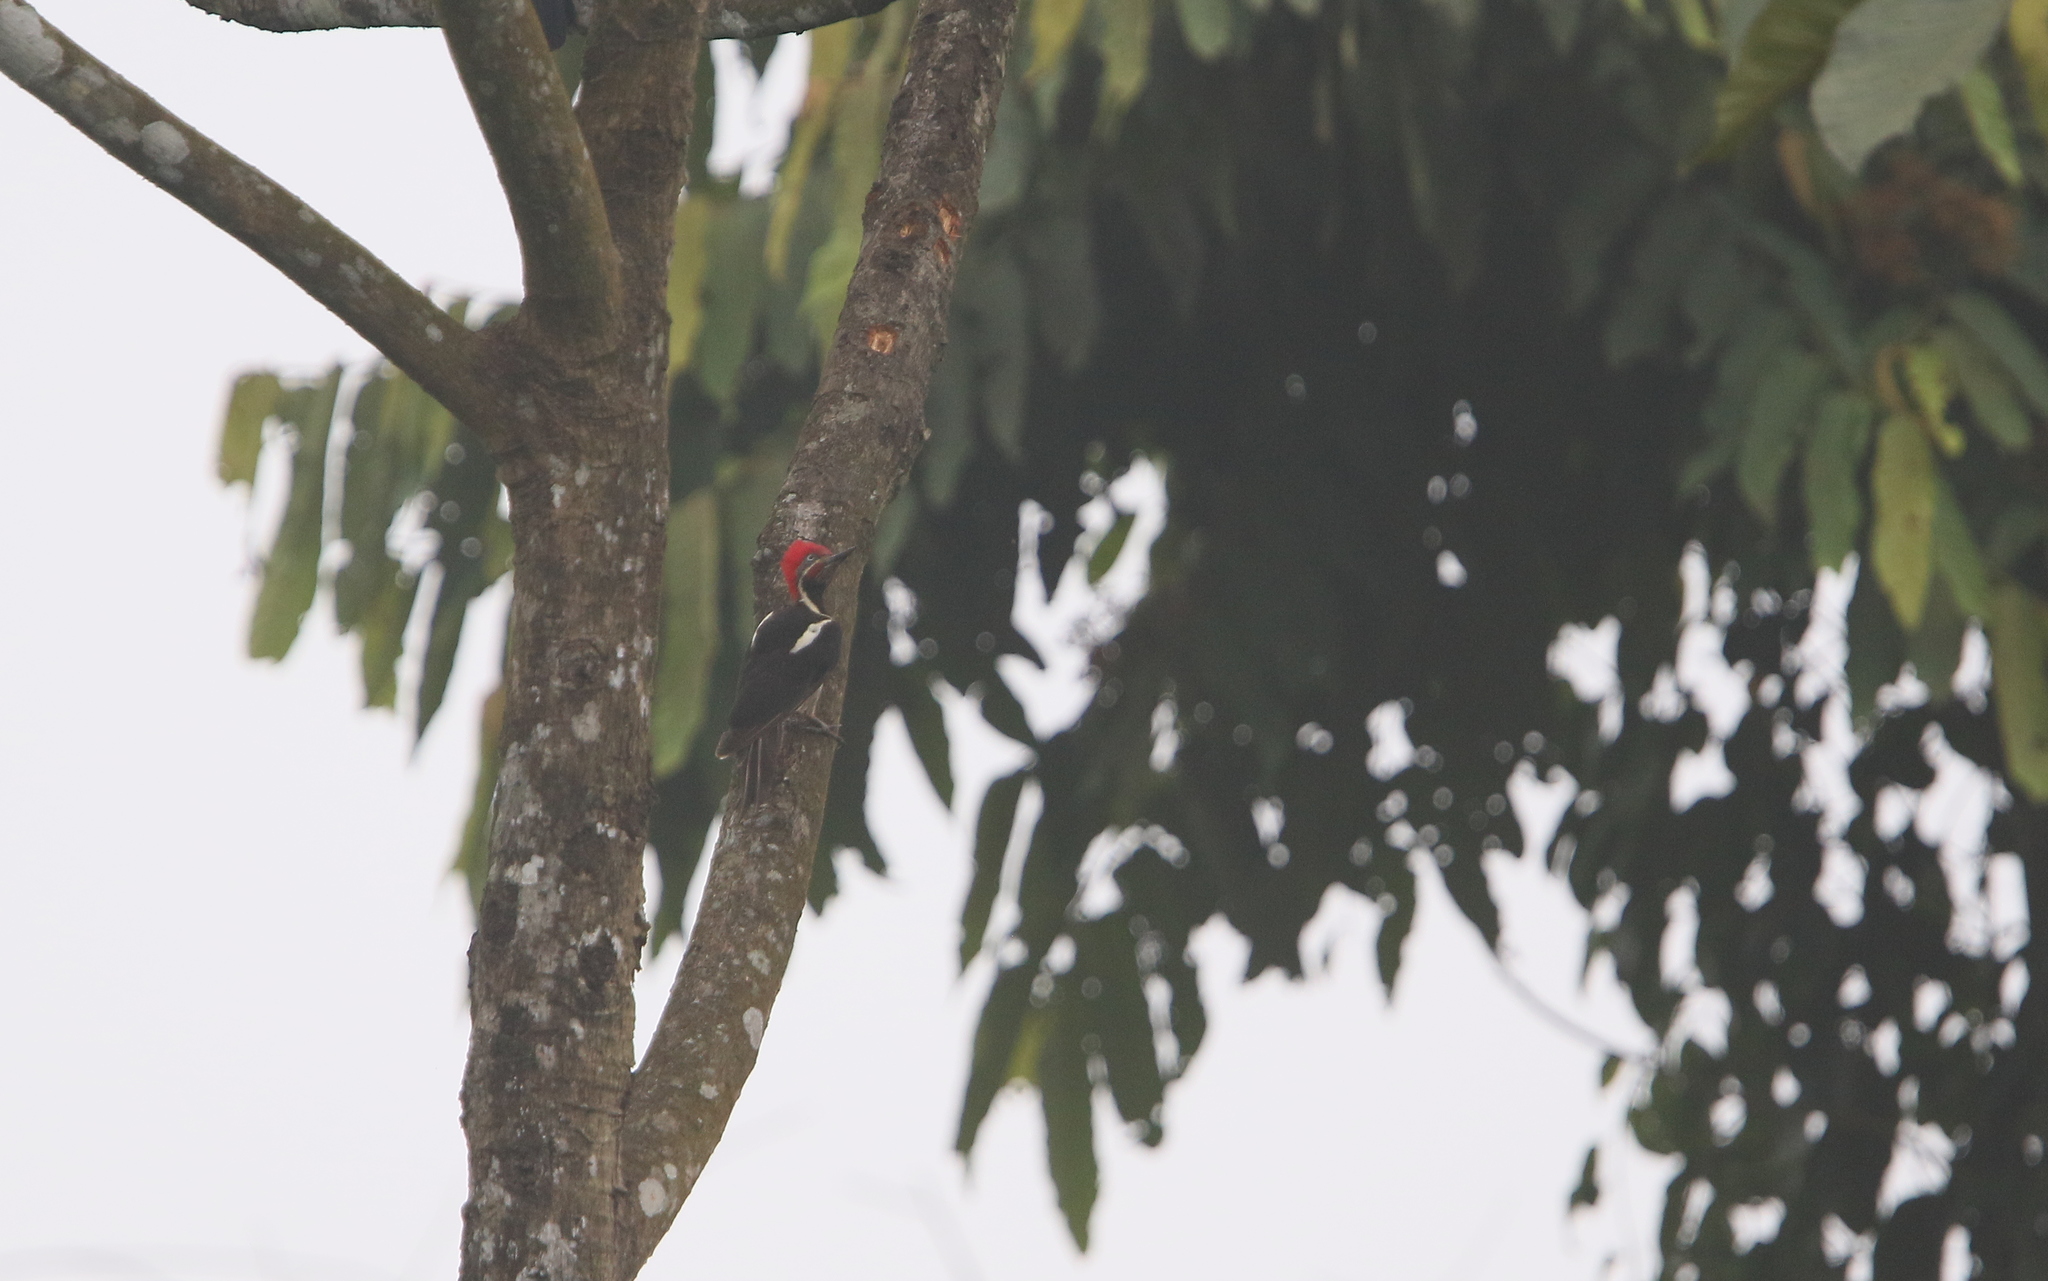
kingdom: Animalia
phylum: Chordata
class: Aves
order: Piciformes
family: Picidae
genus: Dryocopus
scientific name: Dryocopus lineatus
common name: Lineated woodpecker
